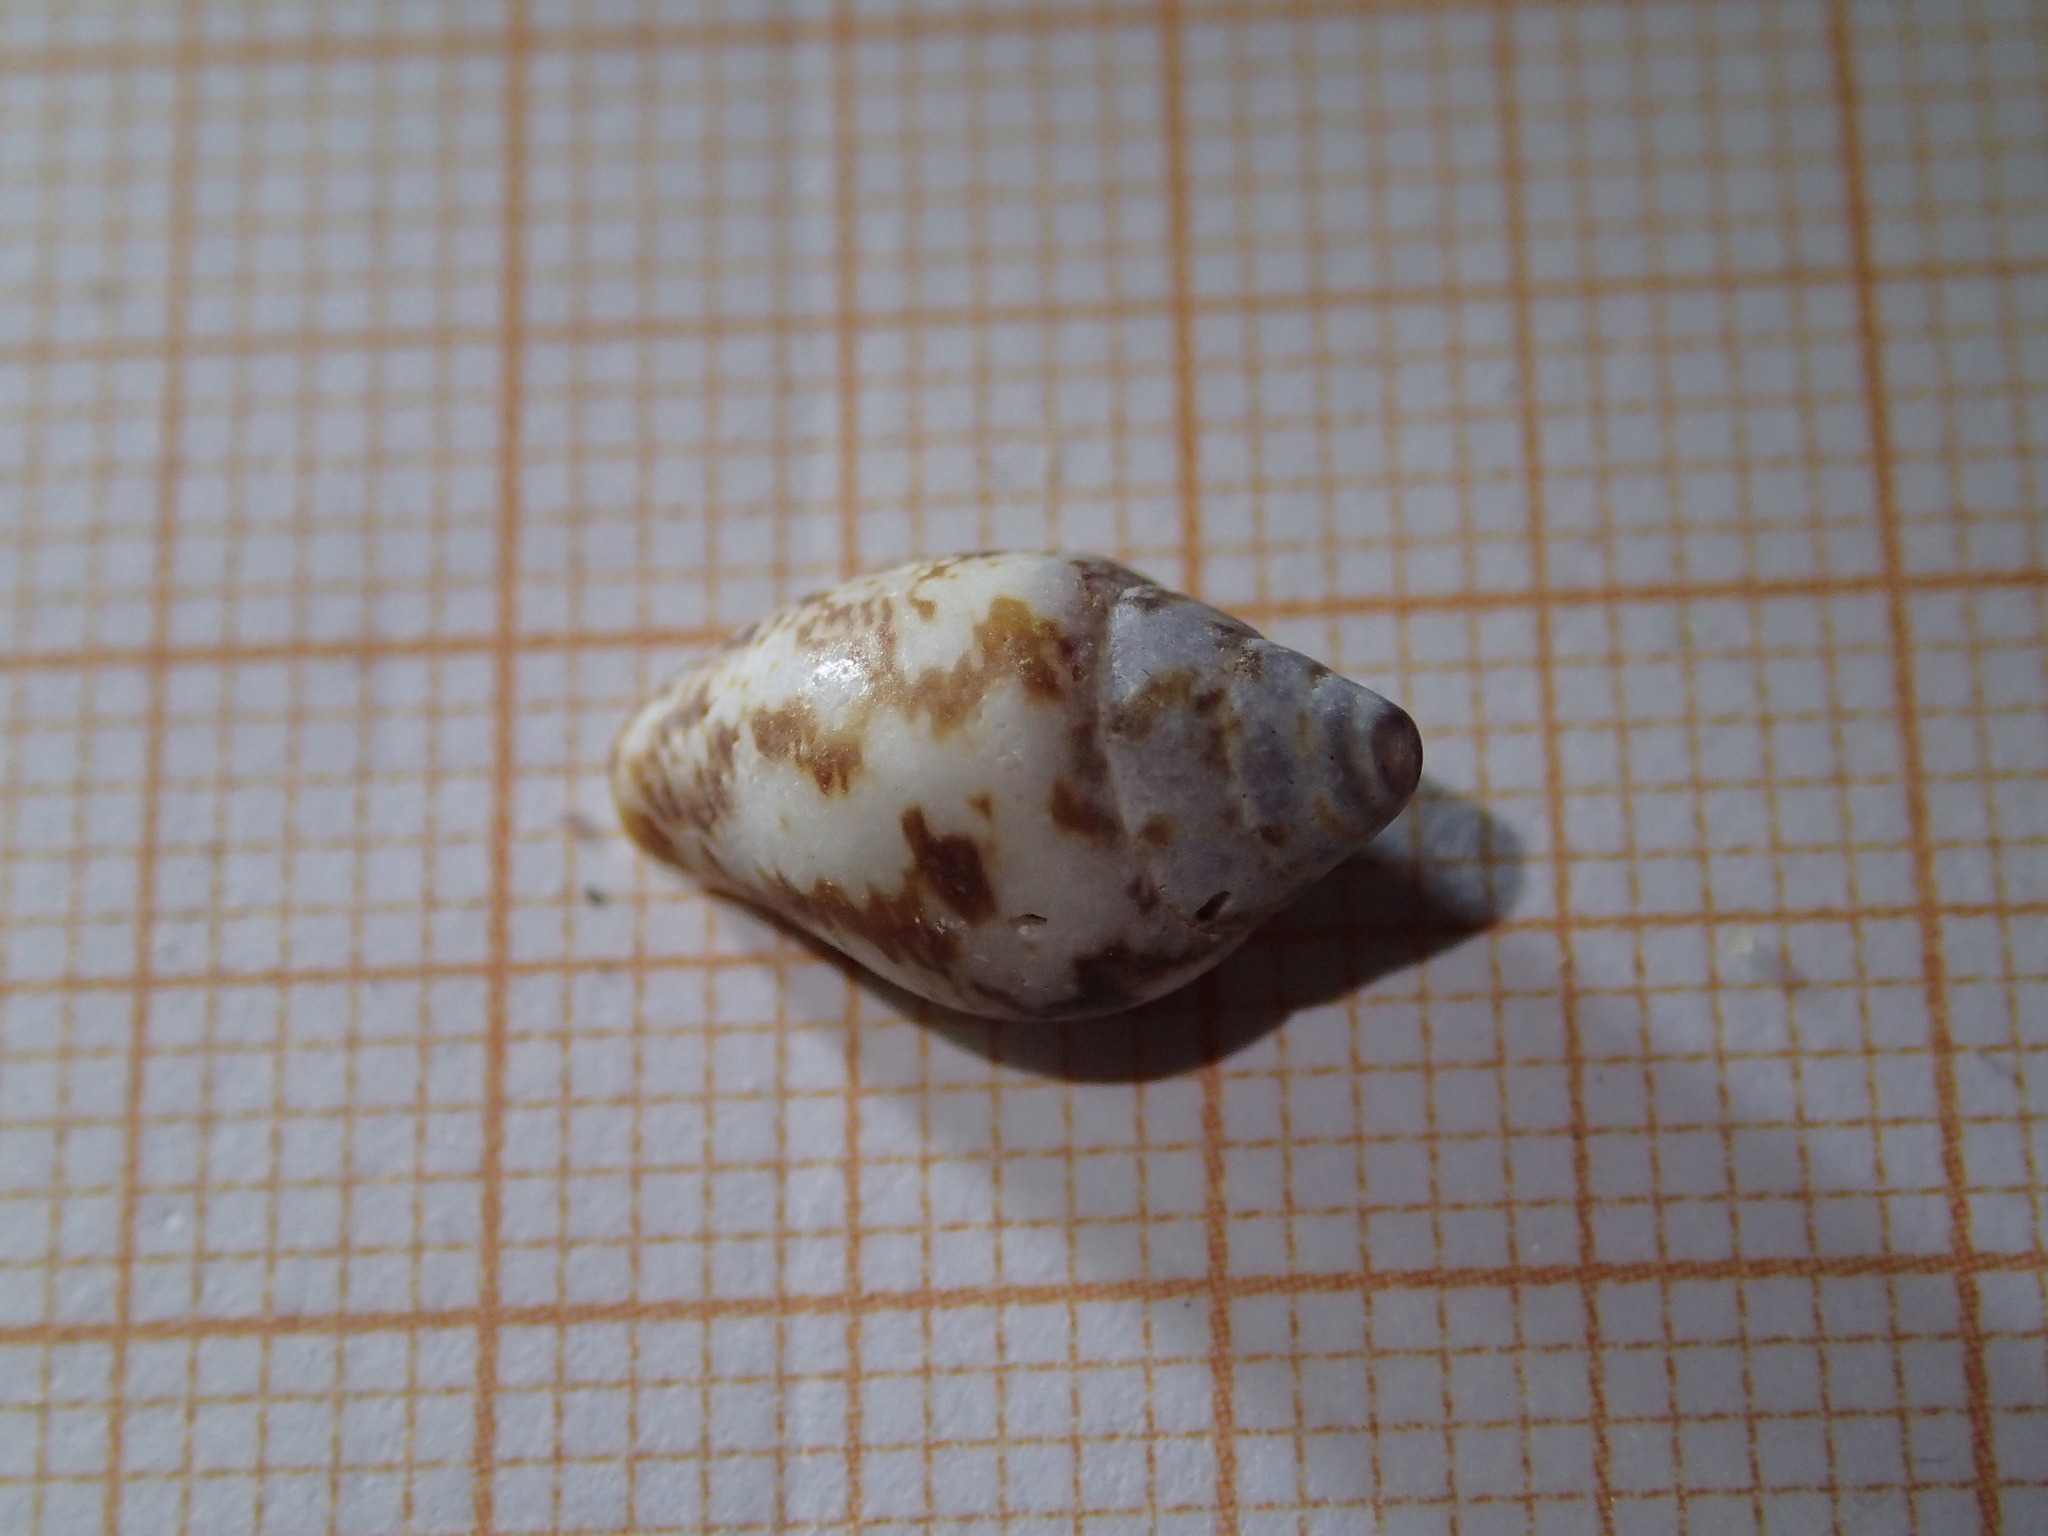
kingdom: Animalia
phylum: Mollusca
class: Gastropoda
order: Neogastropoda
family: Columbellidae
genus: Columbella
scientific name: Columbella rustica
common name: Rustic dove shell
